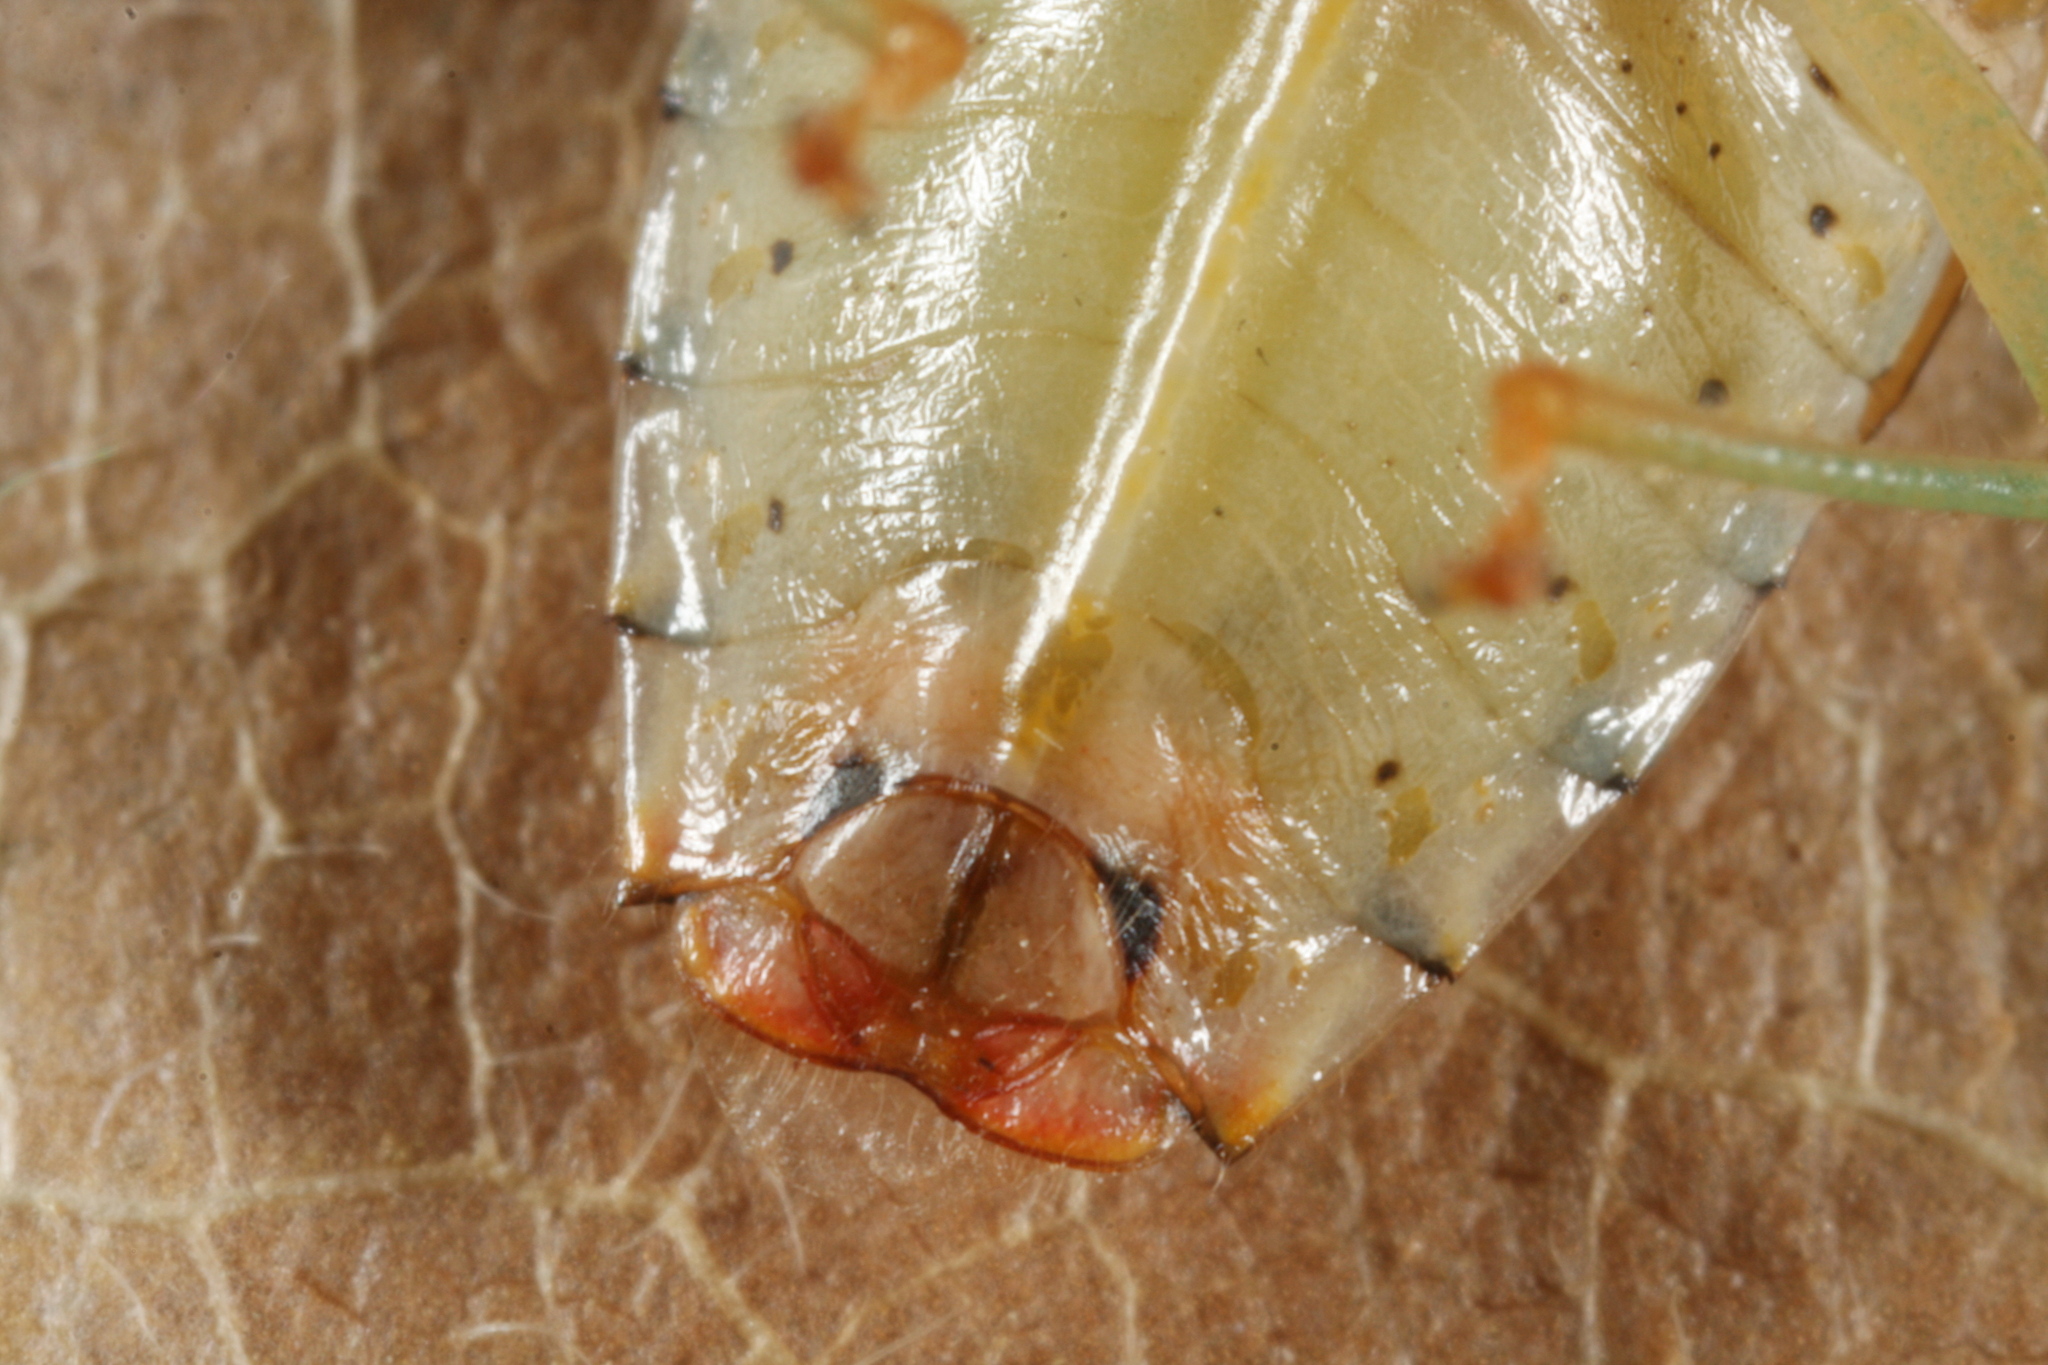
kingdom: Animalia
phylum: Arthropoda
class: Insecta
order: Hemiptera
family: Acanthosomatidae
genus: Elasmucha
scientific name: Elasmucha grisea
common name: Parent bug
